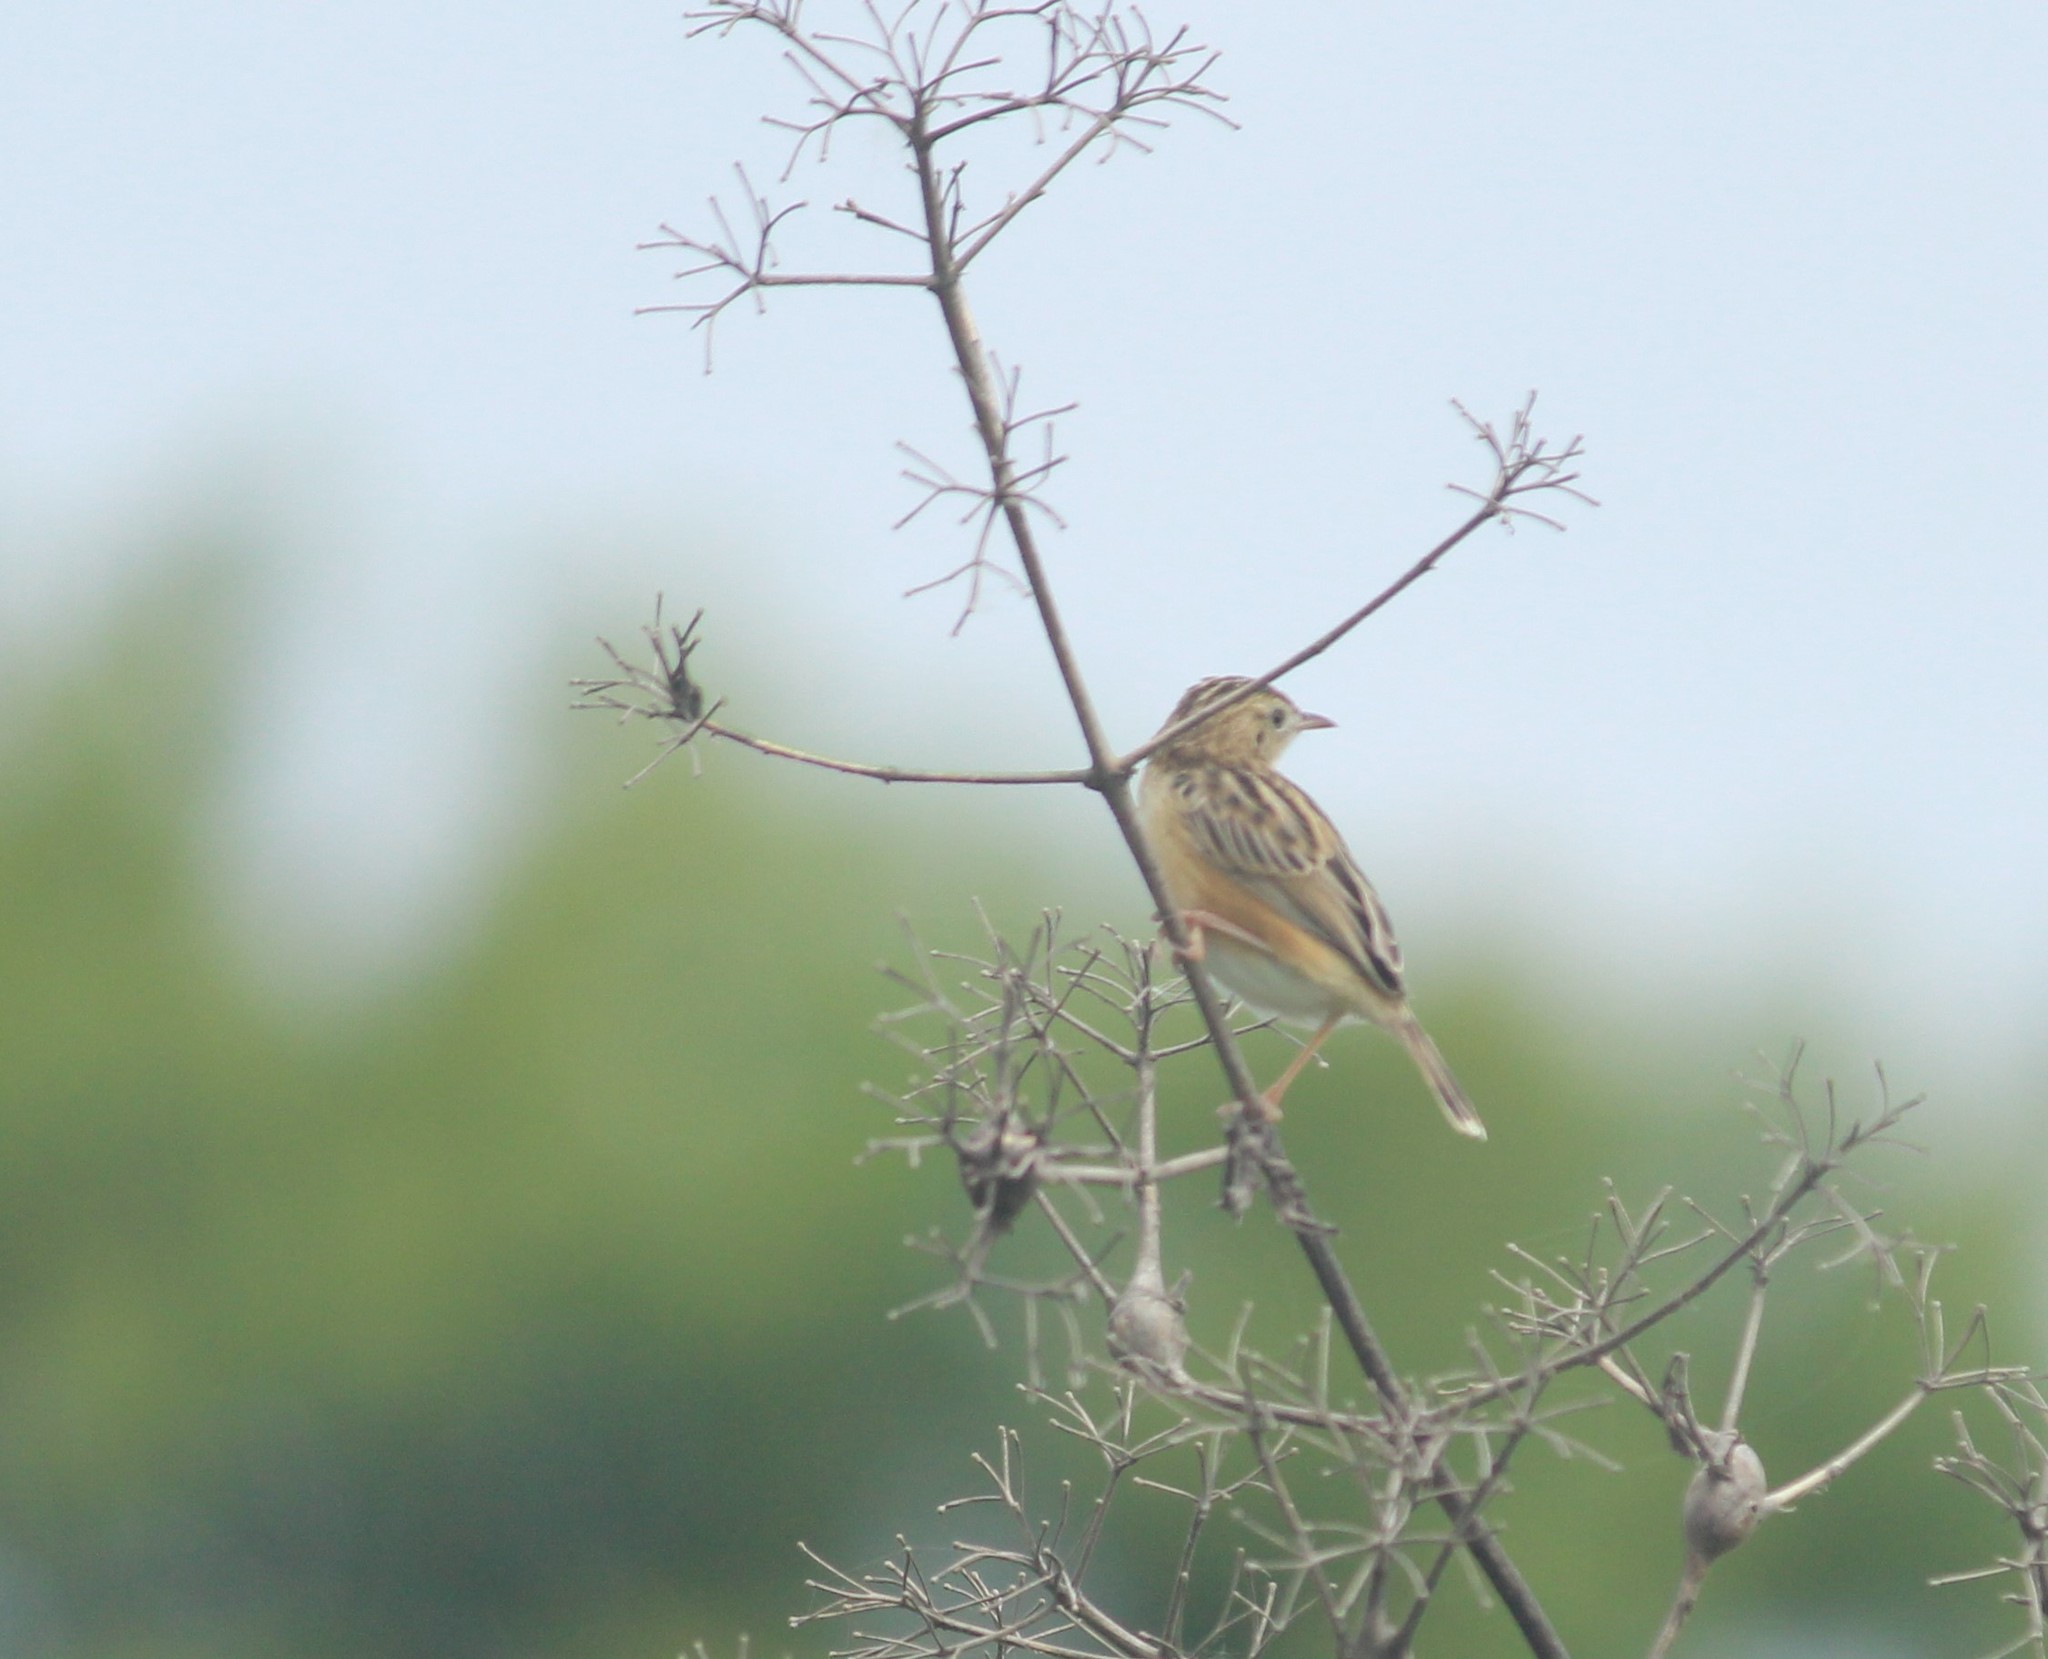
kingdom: Animalia
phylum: Chordata
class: Aves
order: Passeriformes
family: Cisticolidae
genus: Cisticola
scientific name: Cisticola juncidis
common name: Zitting cisticola
